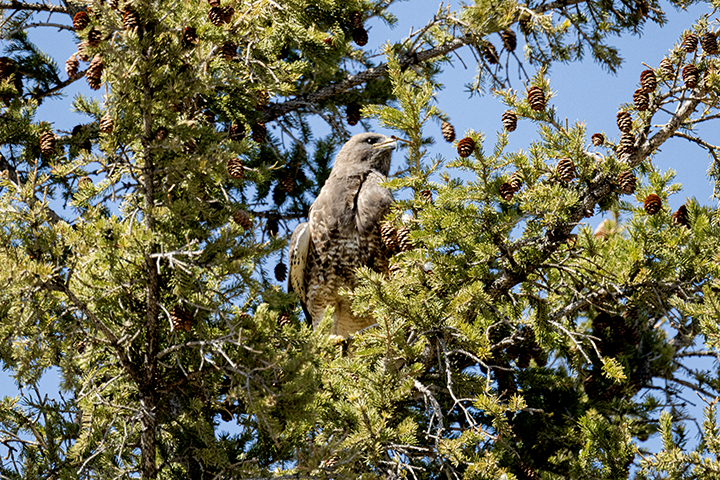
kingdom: Animalia
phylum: Chordata
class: Aves
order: Accipitriformes
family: Accipitridae
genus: Buteo
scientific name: Buteo swainsoni
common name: Swainson's hawk
